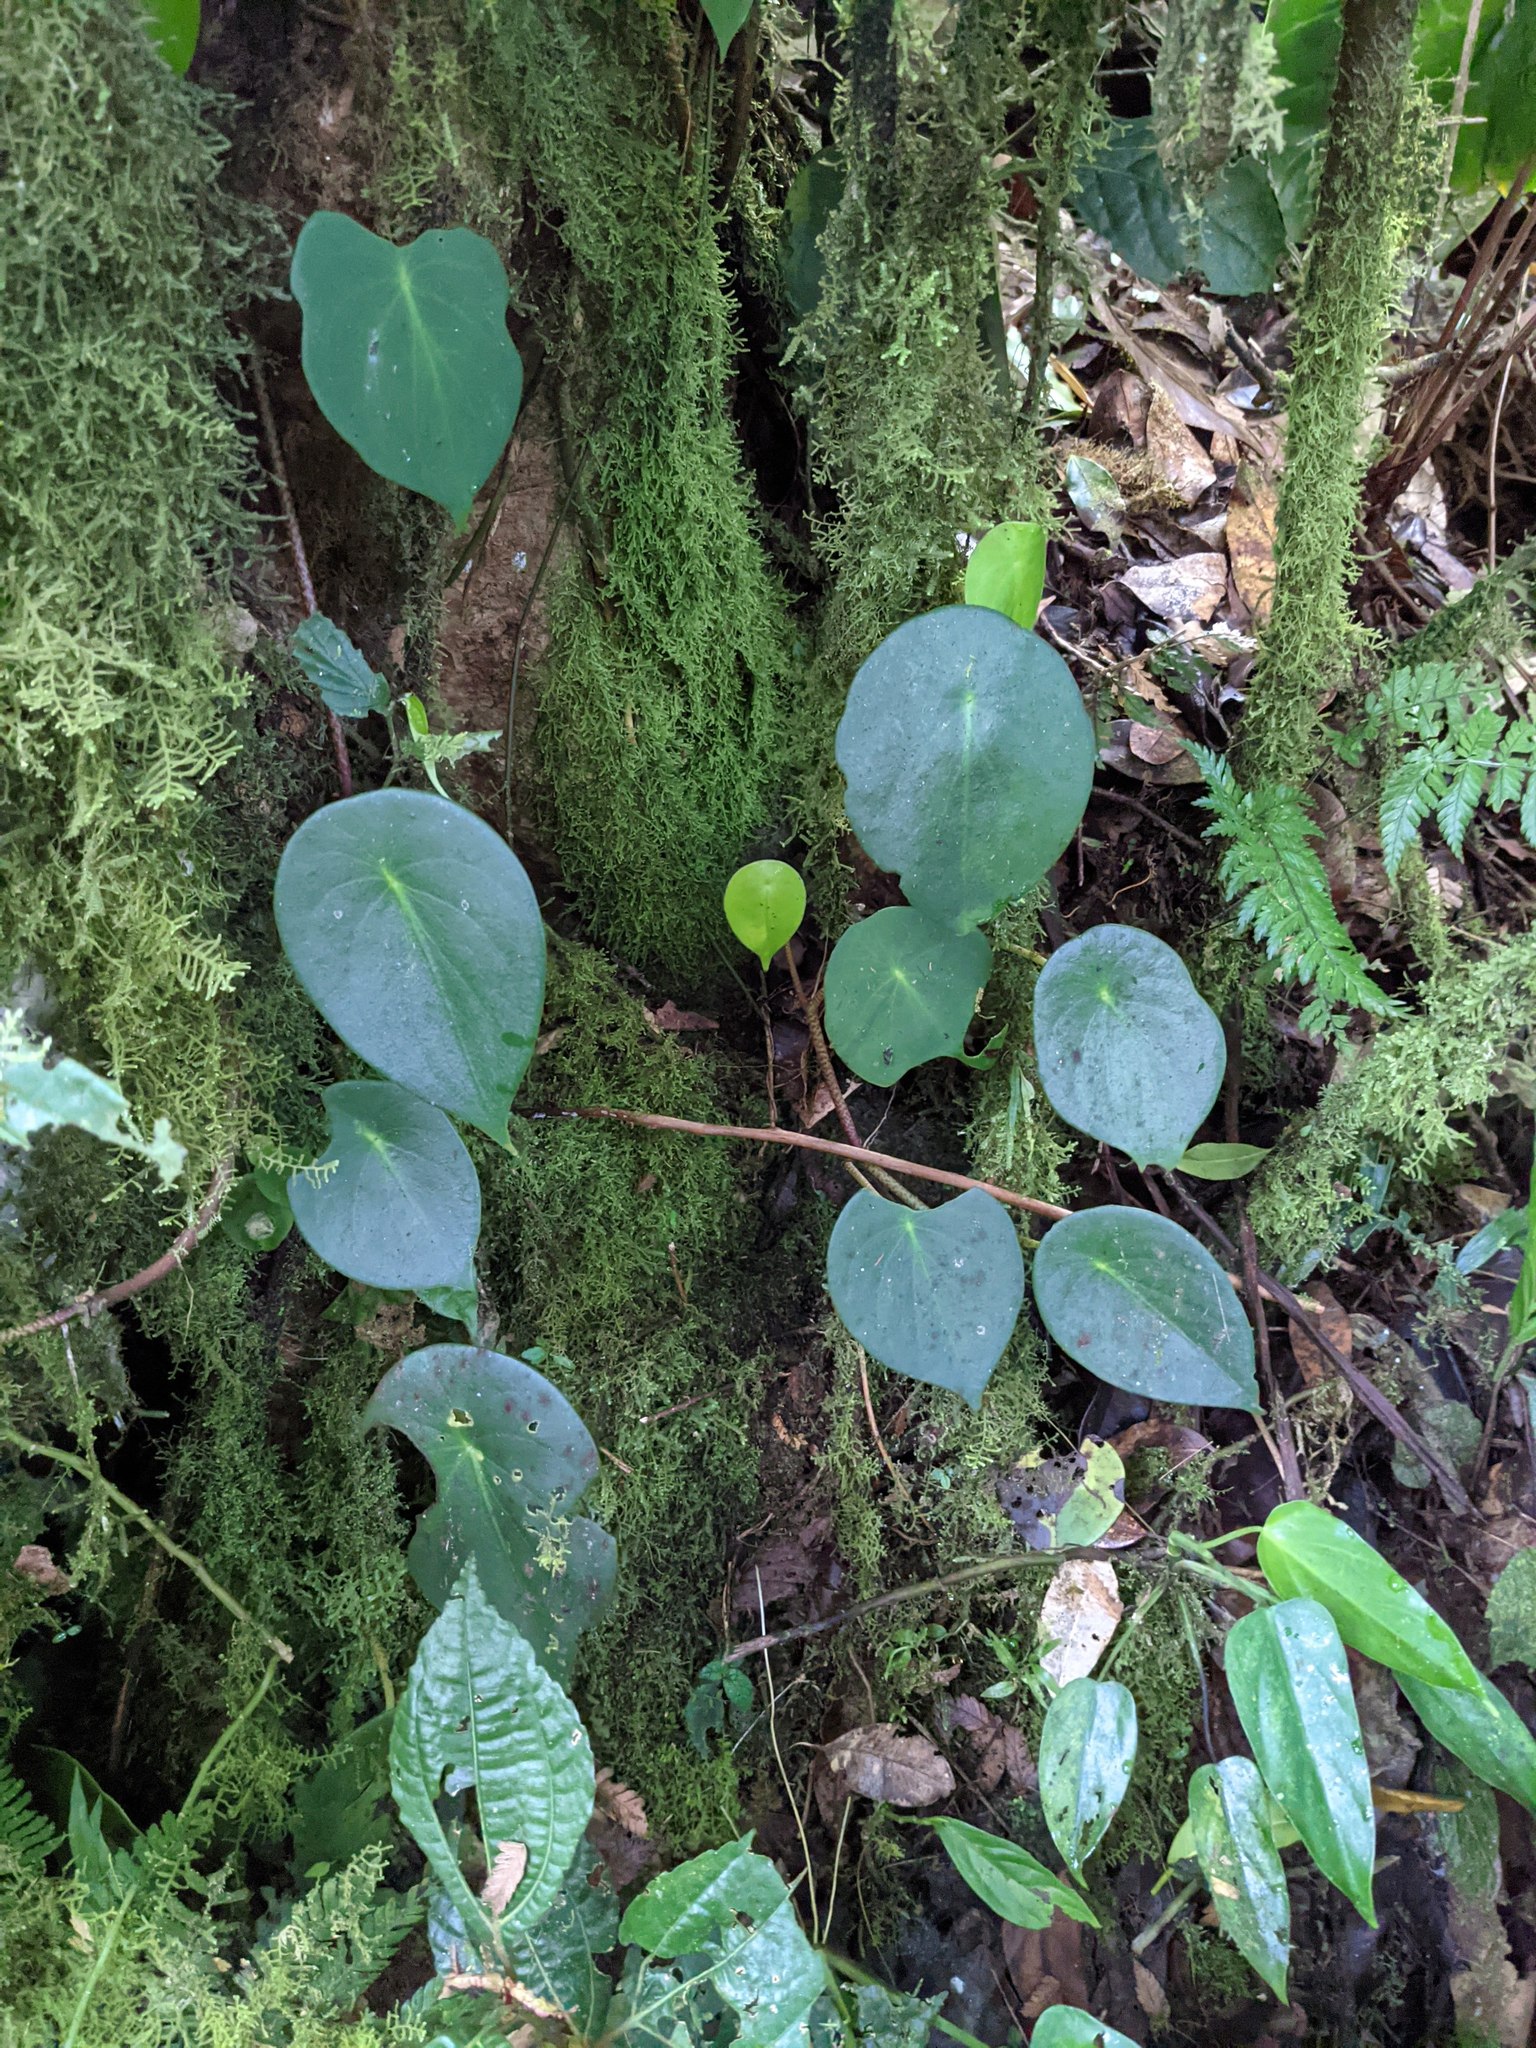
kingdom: Plantae
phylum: Tracheophyta
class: Magnoliopsida
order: Piperales
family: Piperaceae
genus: Peperomia
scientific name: Peperomia hernandiifolia
